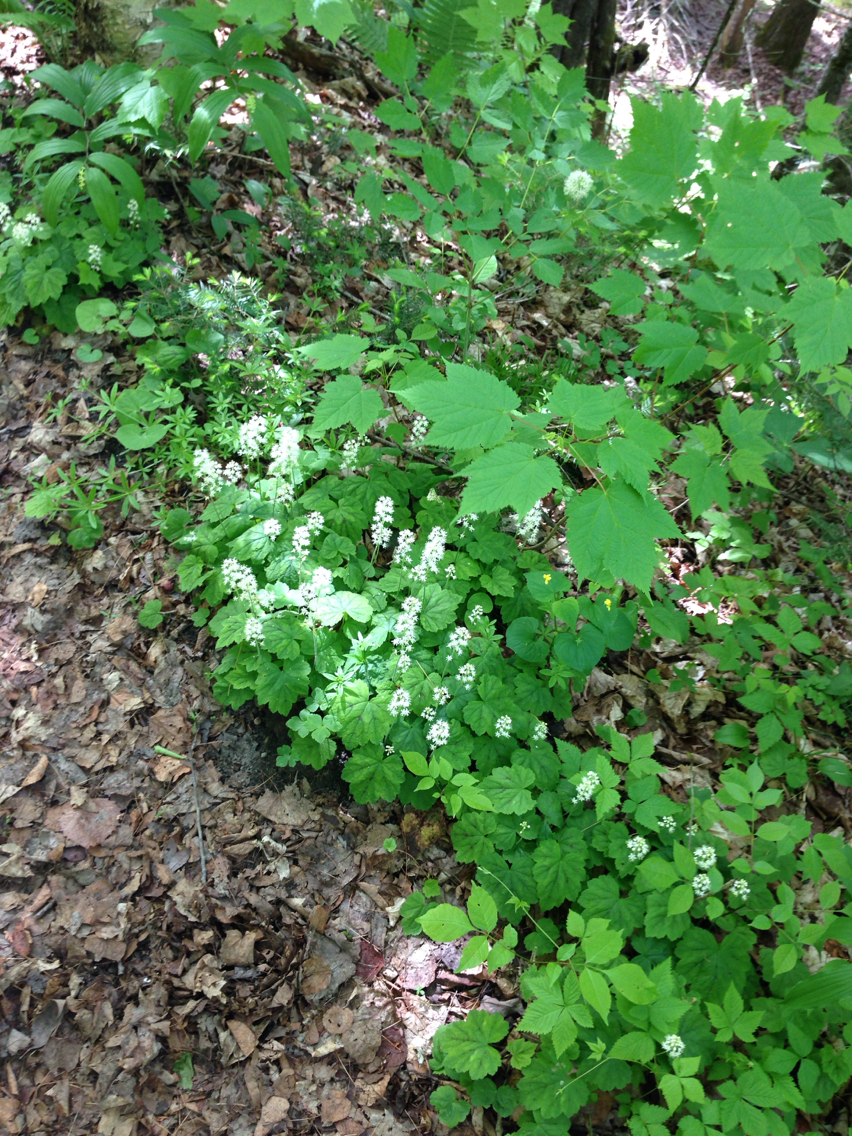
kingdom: Plantae
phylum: Tracheophyta
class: Magnoliopsida
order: Saxifragales
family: Saxifragaceae
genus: Tiarella
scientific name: Tiarella stolonifera
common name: Stoloniferous foamflower
